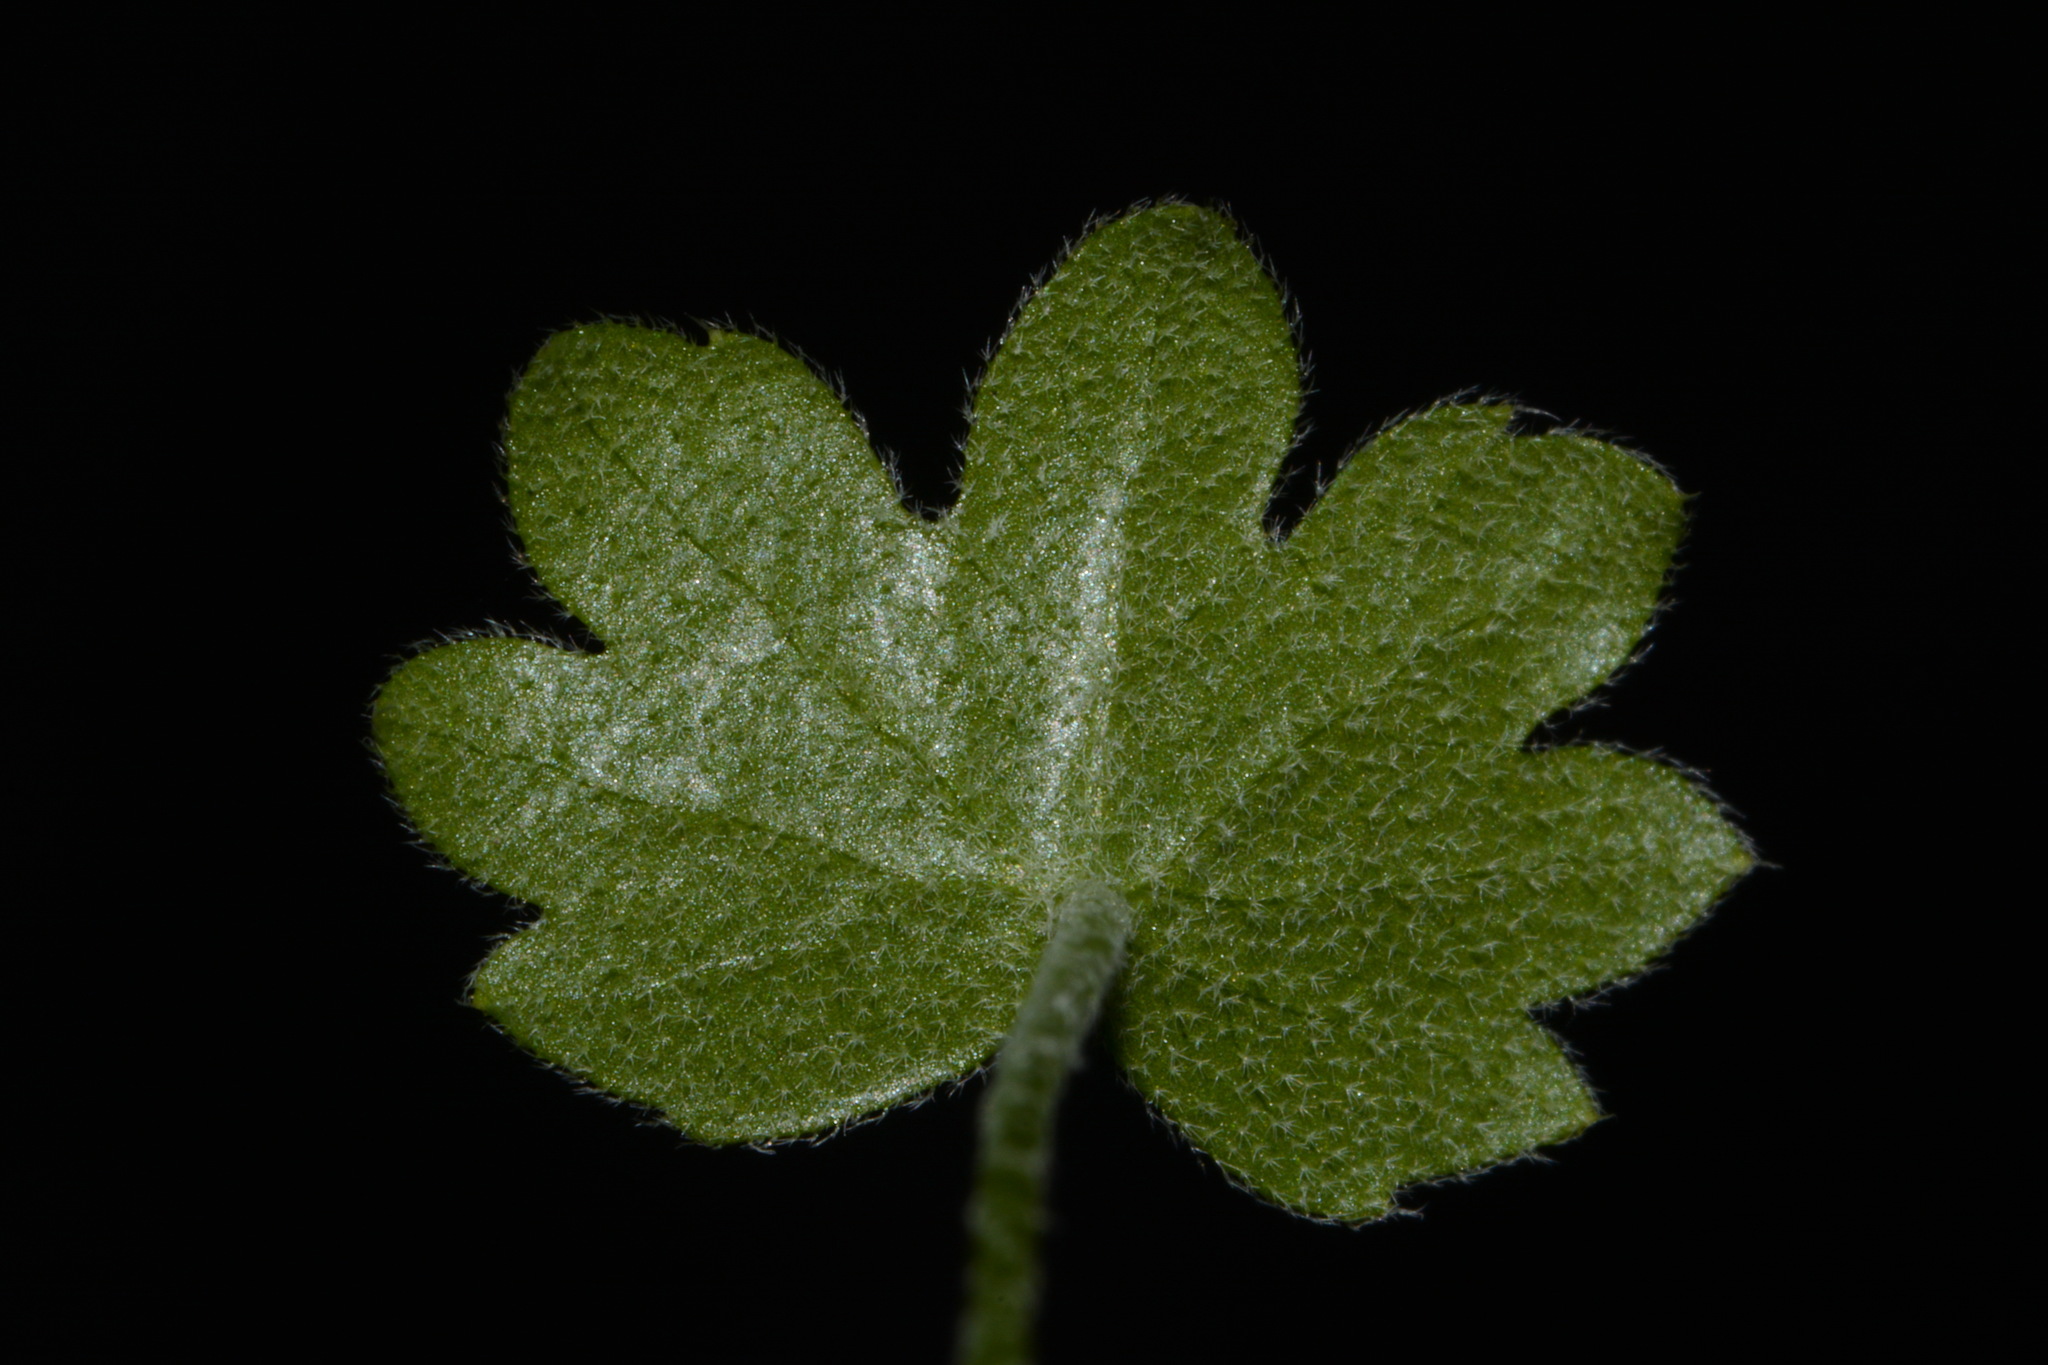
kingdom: Plantae
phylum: Tracheophyta
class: Magnoliopsida
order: Apiales
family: Apiaceae
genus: Bowlesia
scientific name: Bowlesia incana
